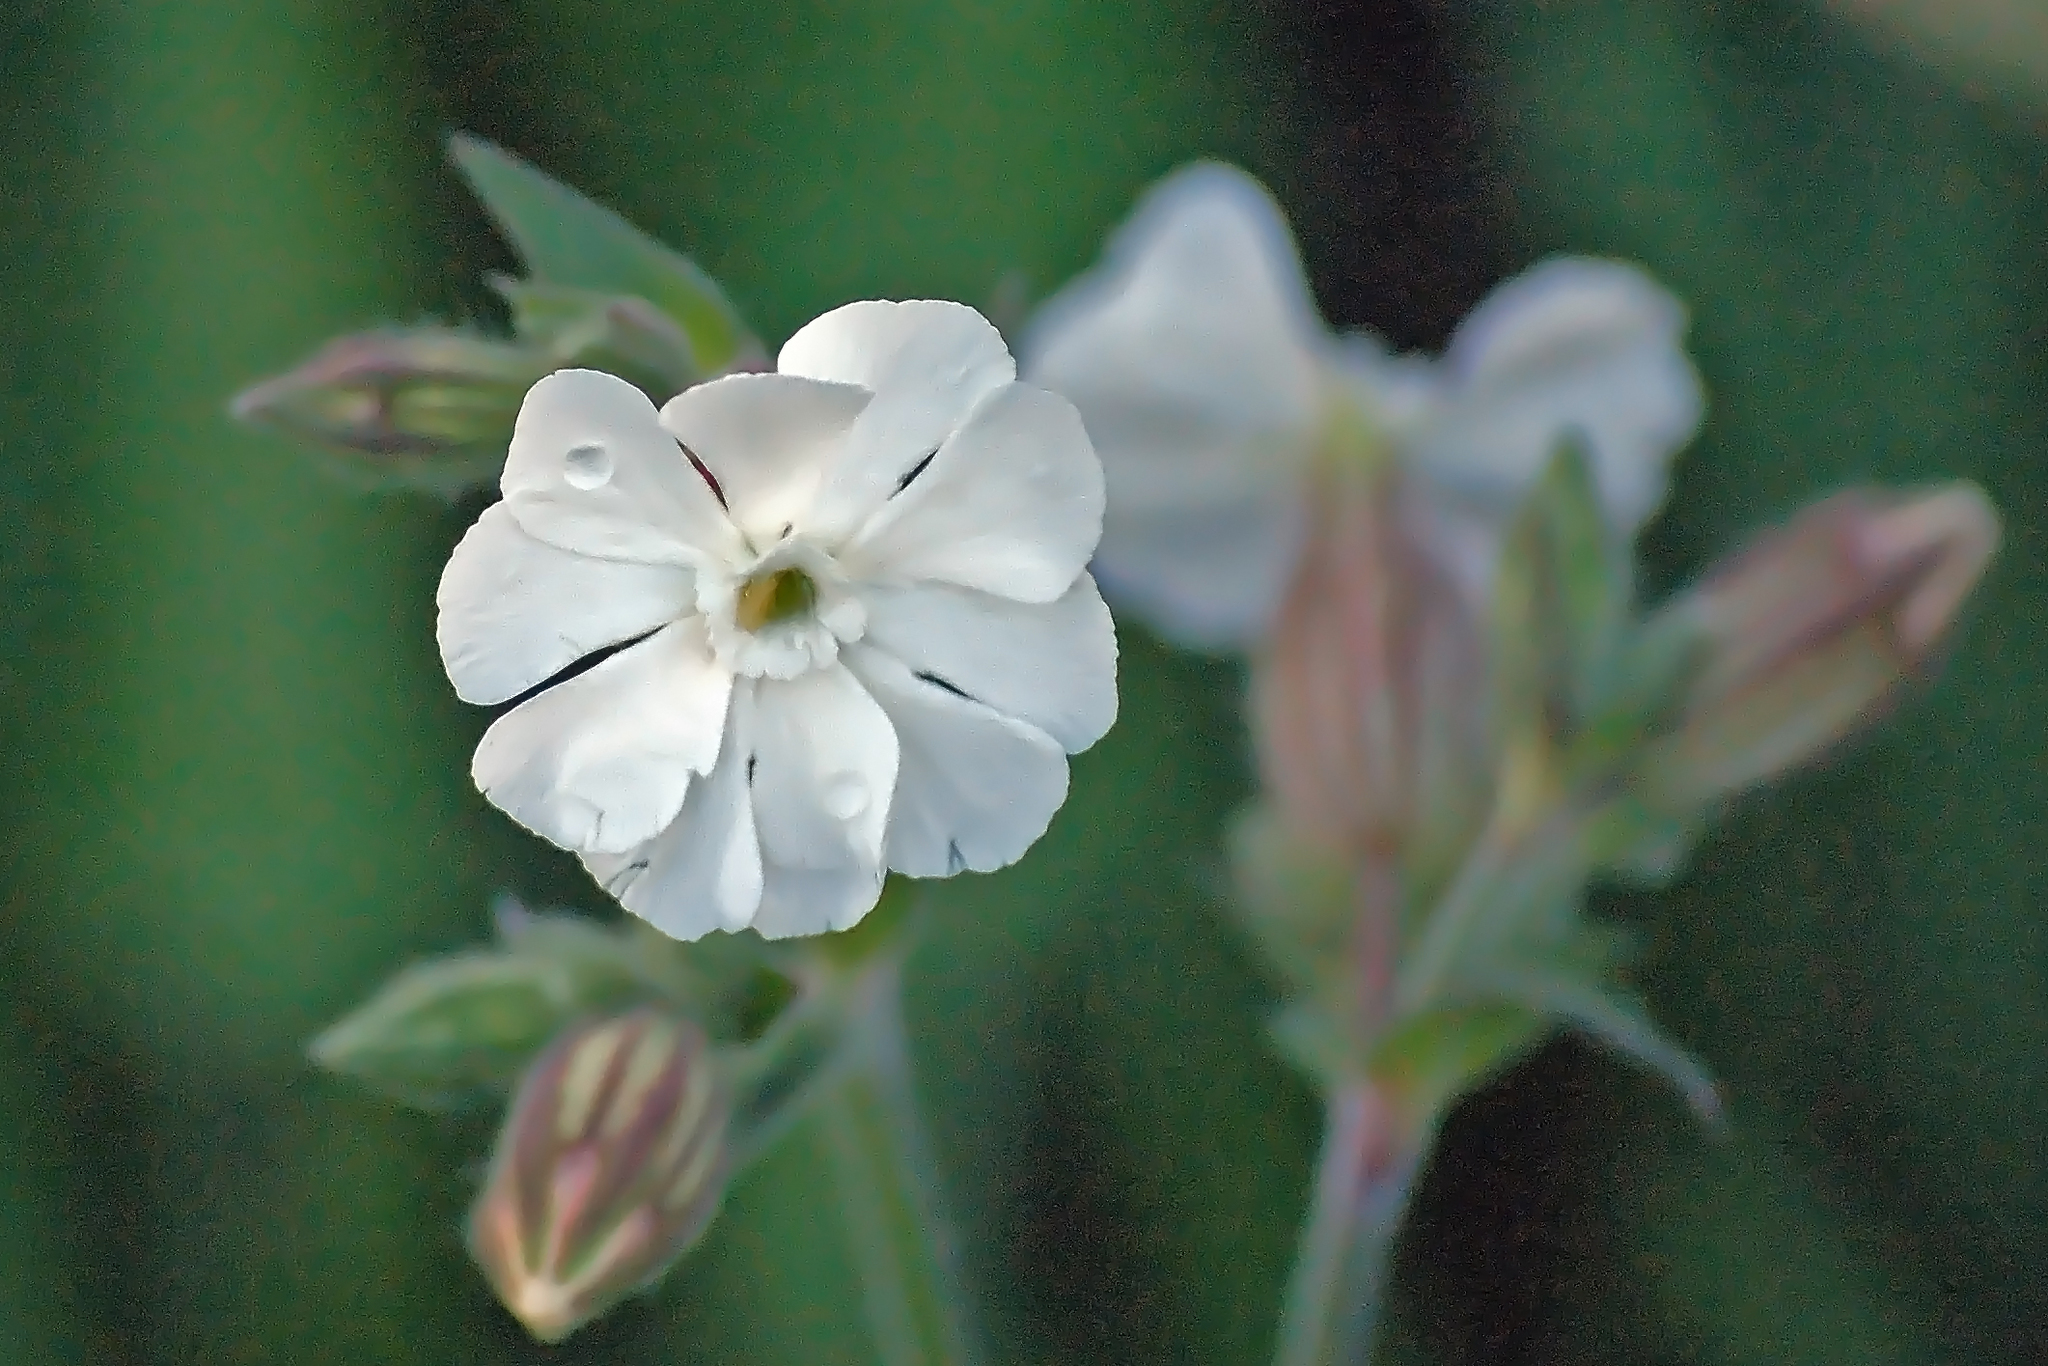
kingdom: Plantae
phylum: Tracheophyta
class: Magnoliopsida
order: Caryophyllales
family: Caryophyllaceae
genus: Silene
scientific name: Silene latifolia
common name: White campion
